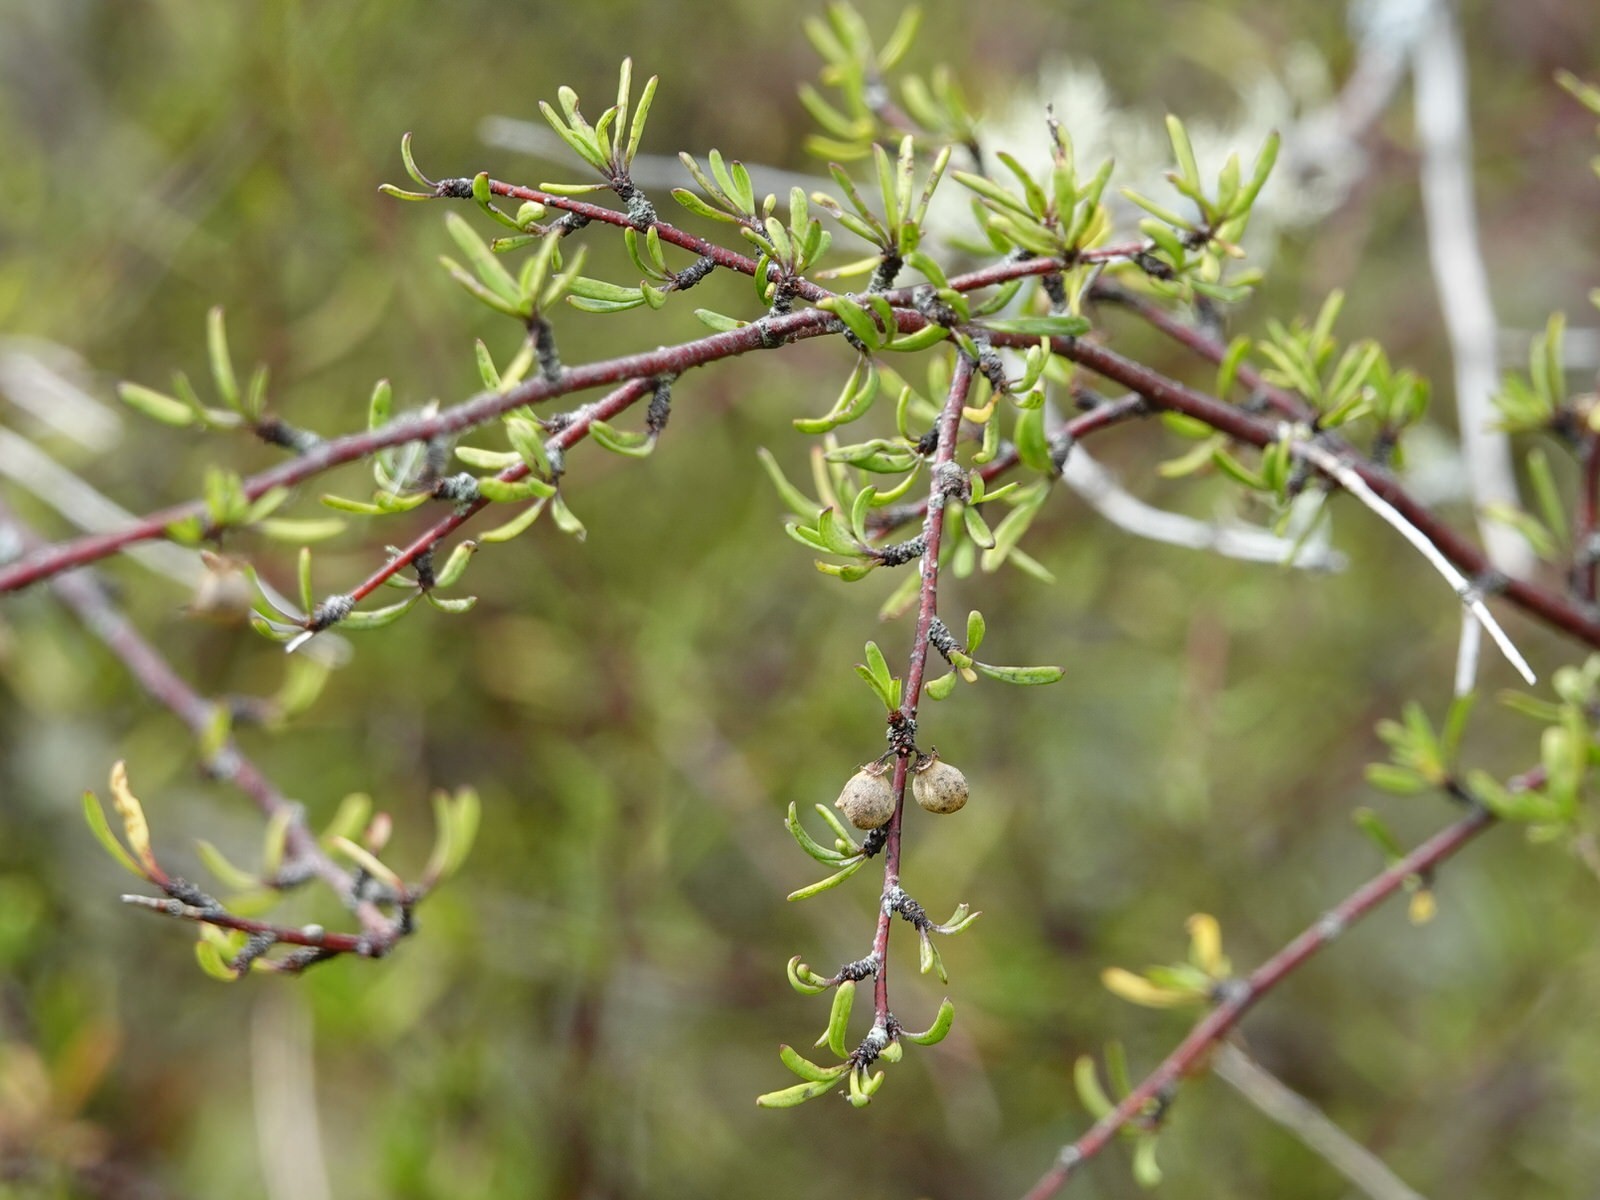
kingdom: Plantae
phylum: Tracheophyta
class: Magnoliopsida
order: Malvales
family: Malvaceae
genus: Plagianthus
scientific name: Plagianthus divaricatus
